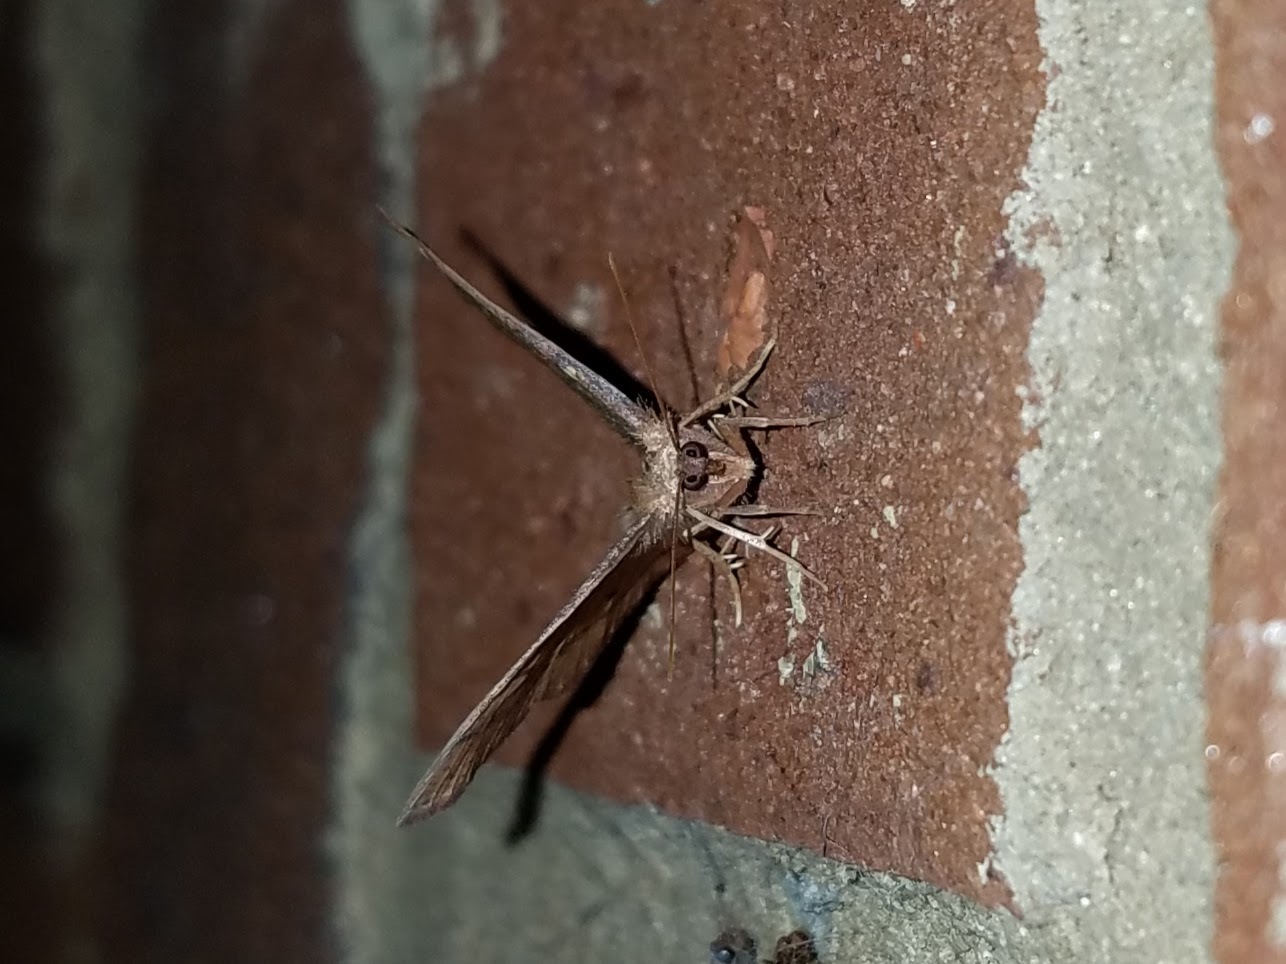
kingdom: Animalia
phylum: Arthropoda
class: Insecta
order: Lepidoptera
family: Geometridae
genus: Ilexia
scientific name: Ilexia intractata
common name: Black-dotted ruddy moth
